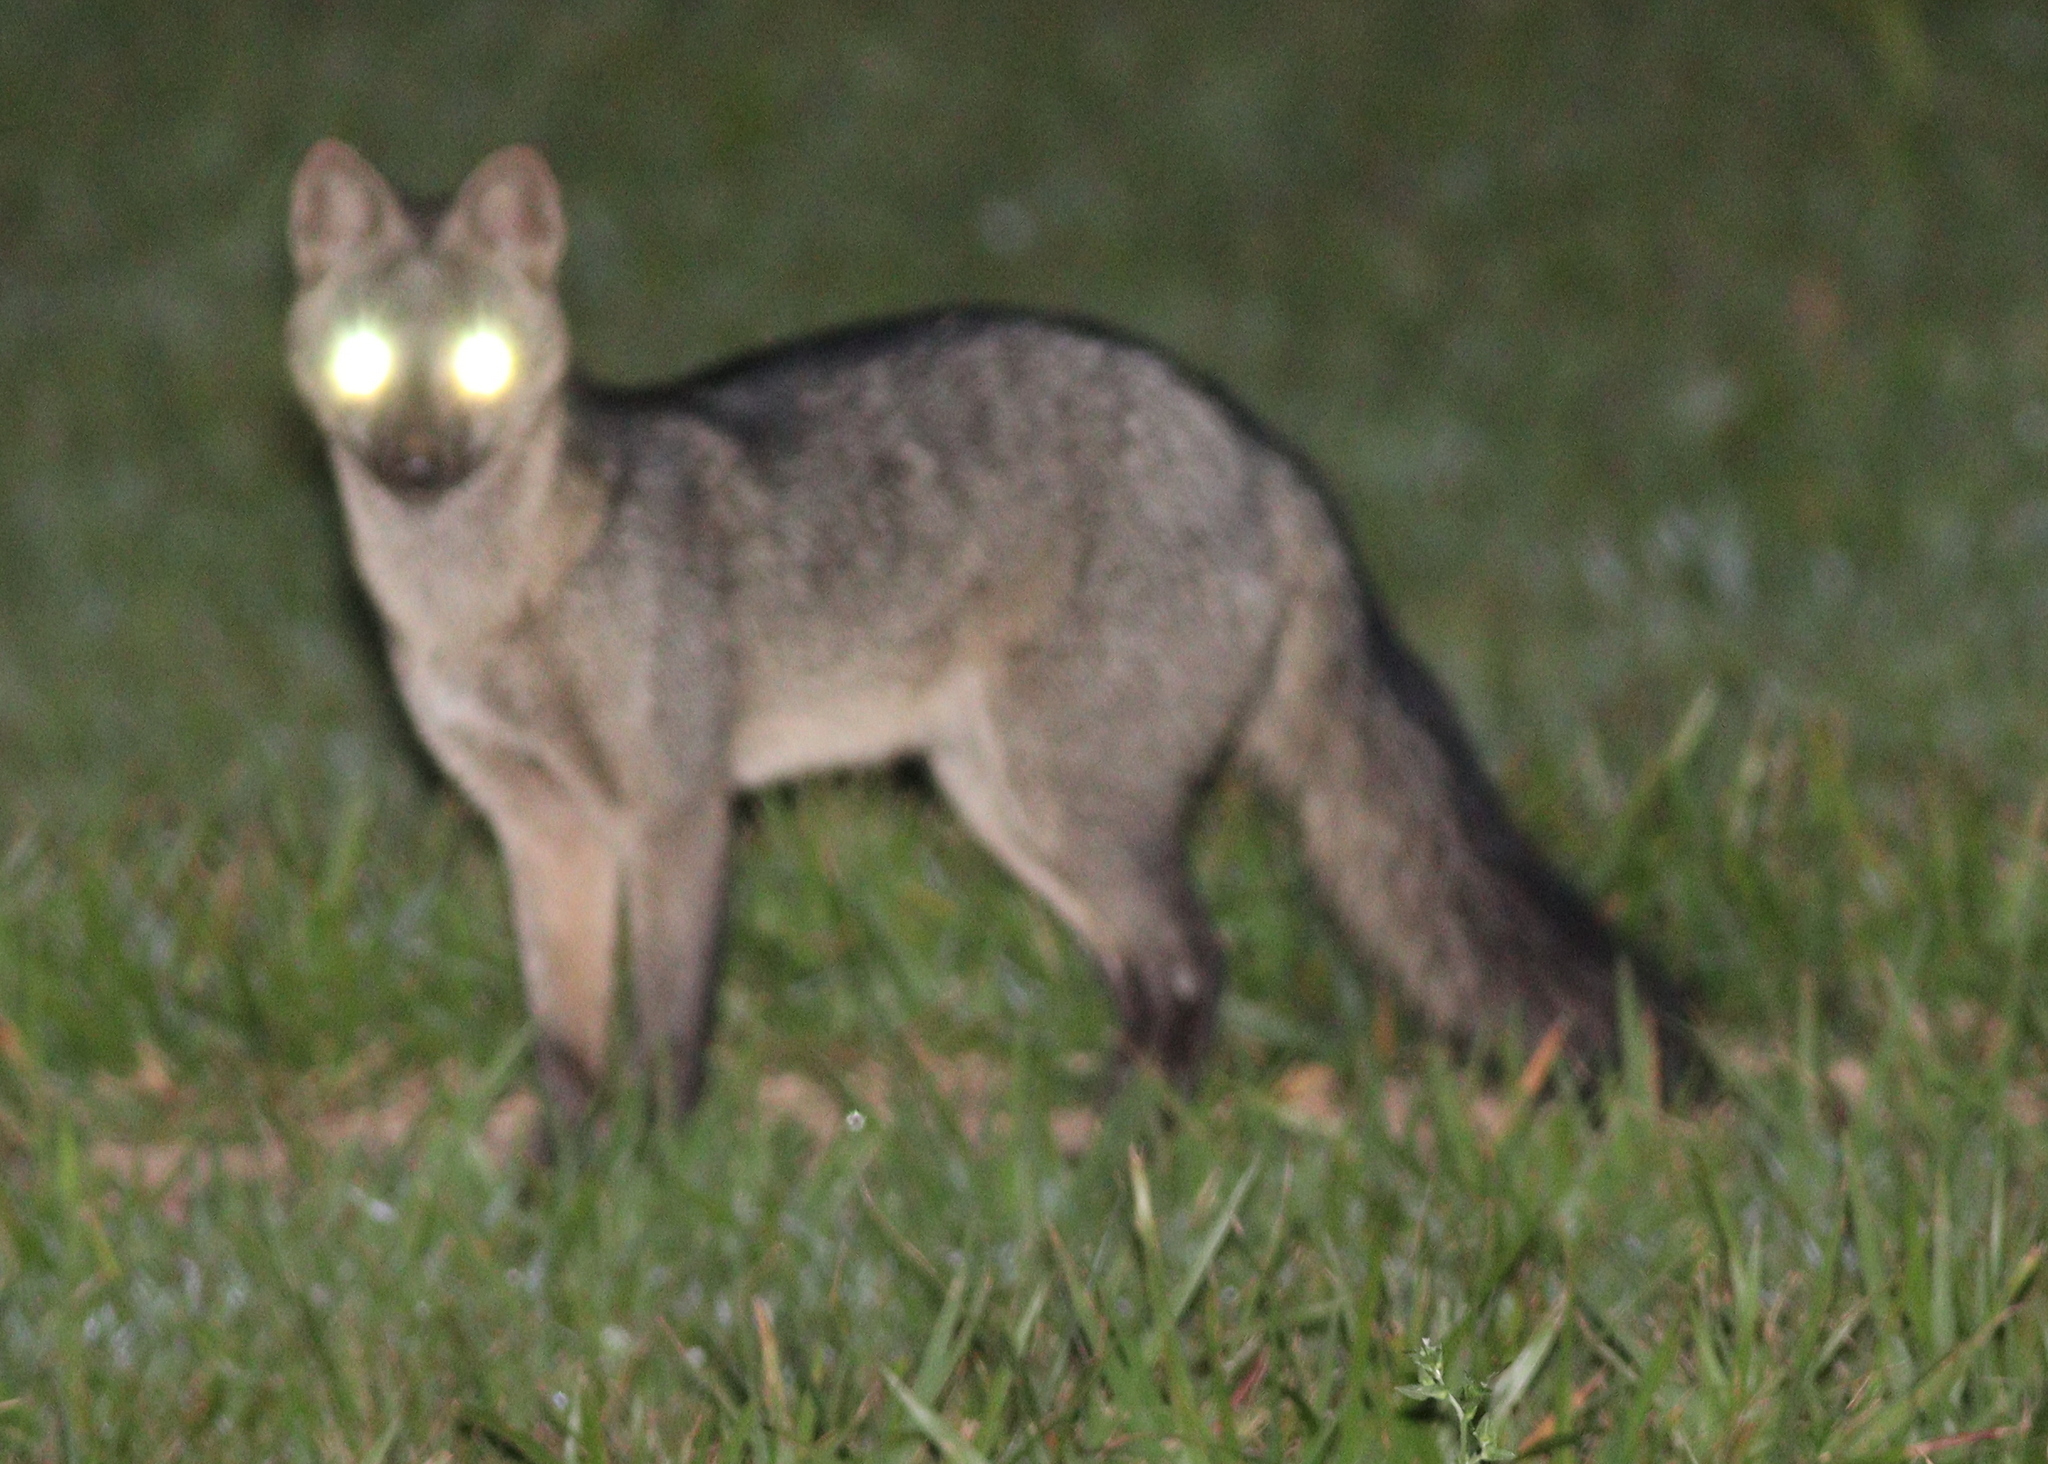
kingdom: Animalia
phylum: Chordata
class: Mammalia
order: Carnivora
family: Canidae
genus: Cerdocyon
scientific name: Cerdocyon thous
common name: Crab-eating fox
